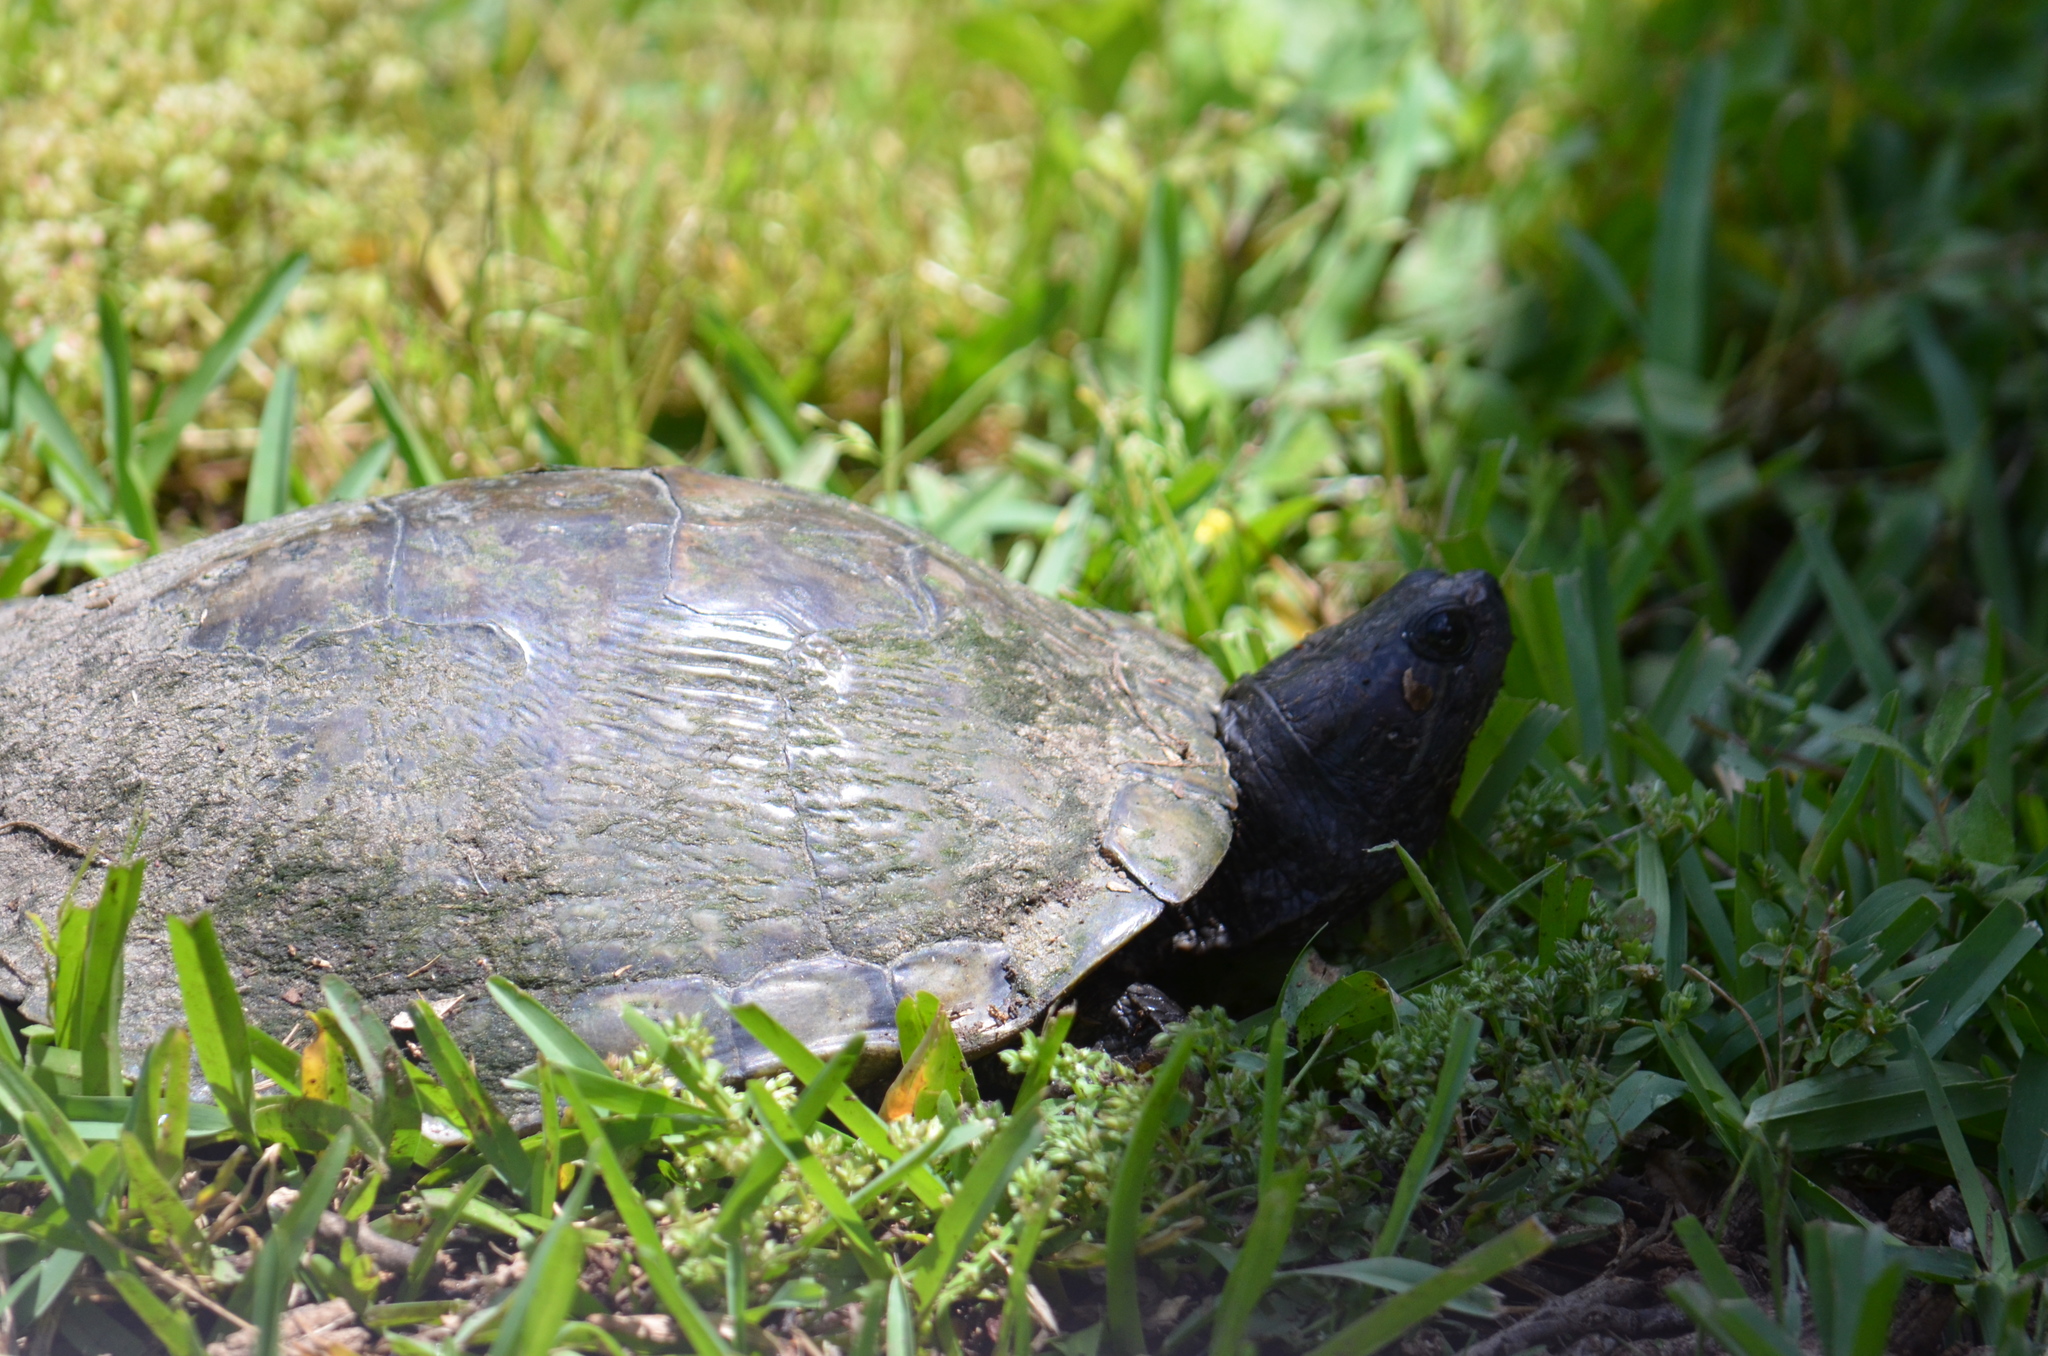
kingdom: Animalia
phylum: Chordata
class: Testudines
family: Emydidae
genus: Trachemys
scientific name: Trachemys scripta
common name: Slider
